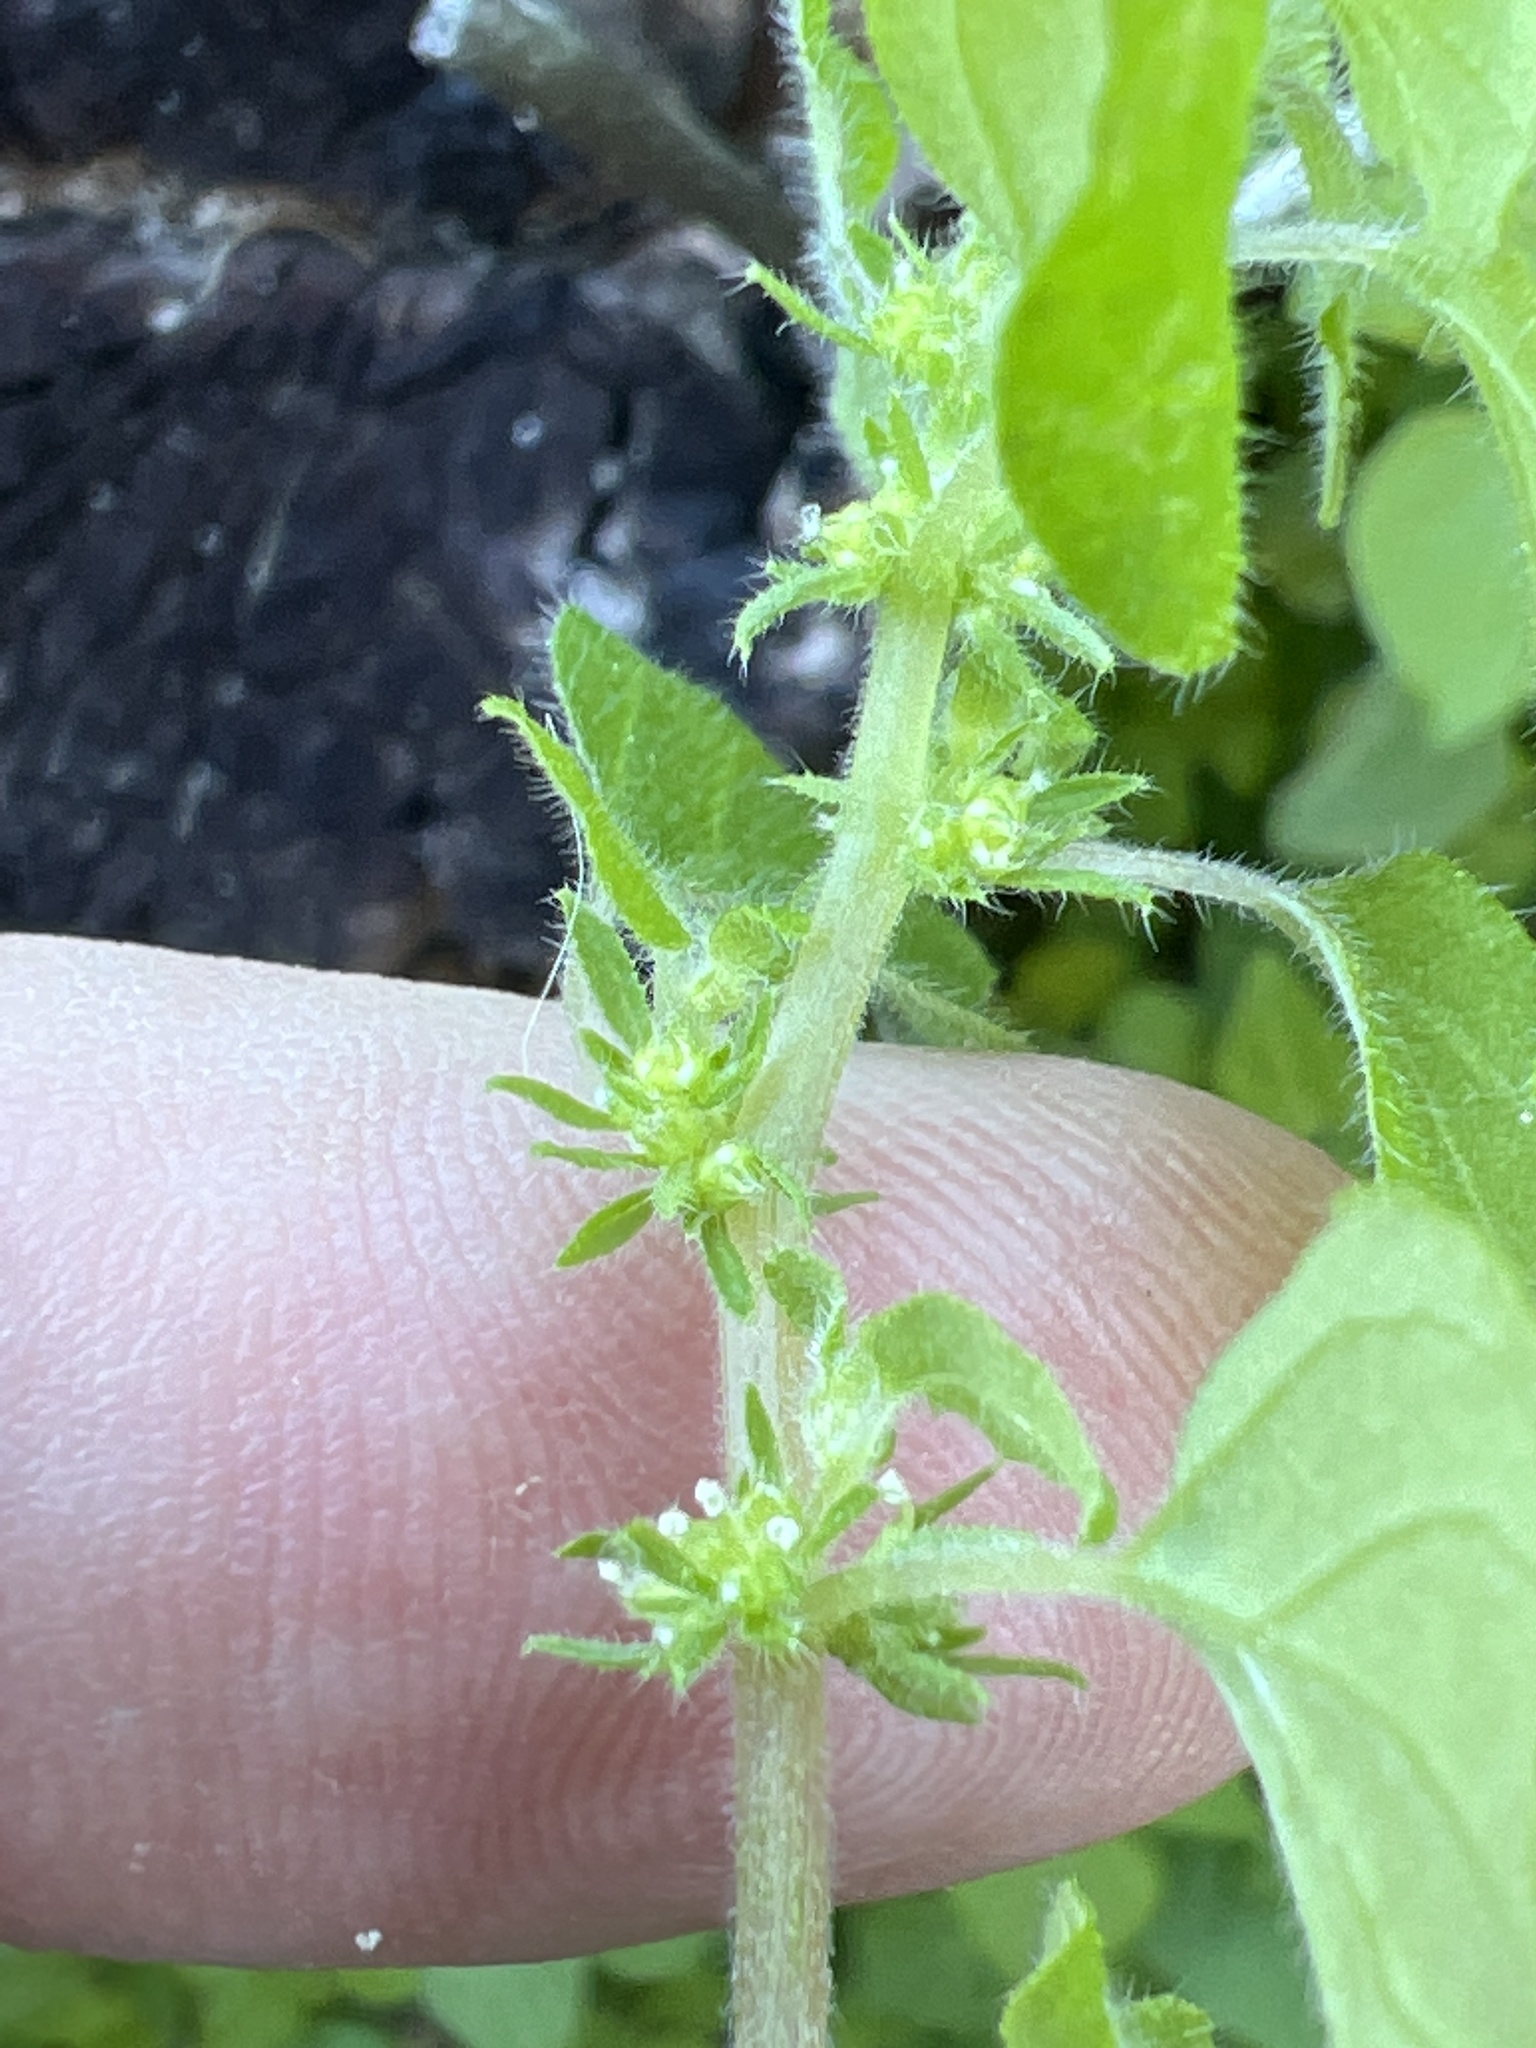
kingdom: Plantae
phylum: Tracheophyta
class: Magnoliopsida
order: Rosales
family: Urticaceae
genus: Parietaria
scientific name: Parietaria hespera
